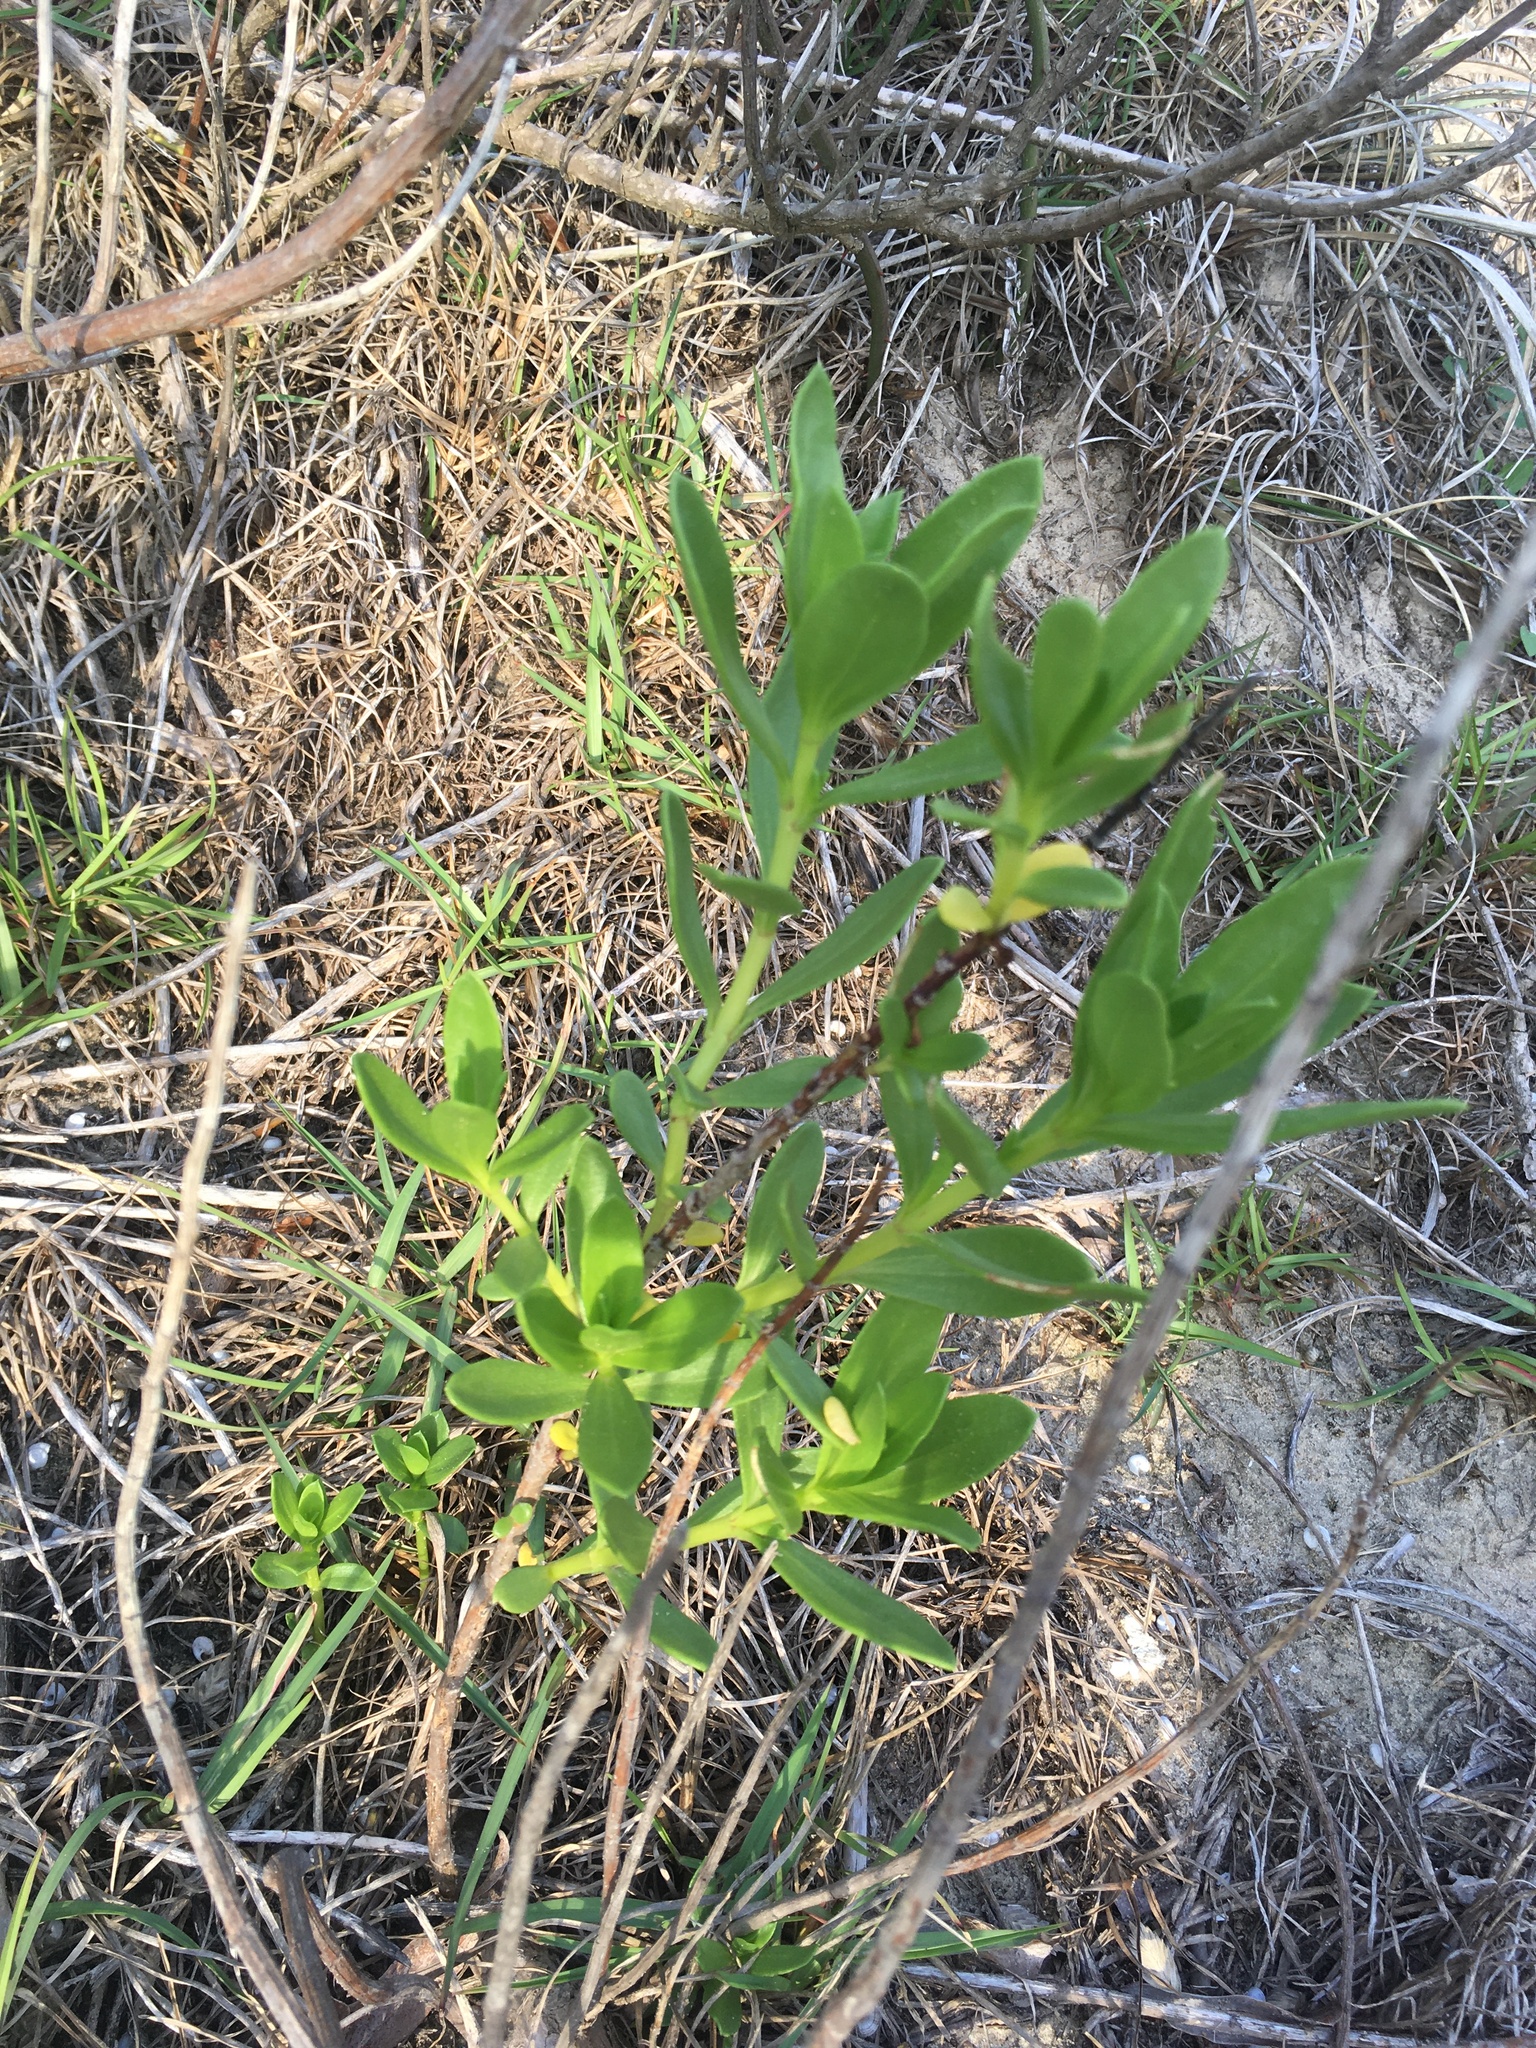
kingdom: Plantae
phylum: Tracheophyta
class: Magnoliopsida
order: Asterales
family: Asteraceae
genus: Iva
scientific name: Iva imbricata
